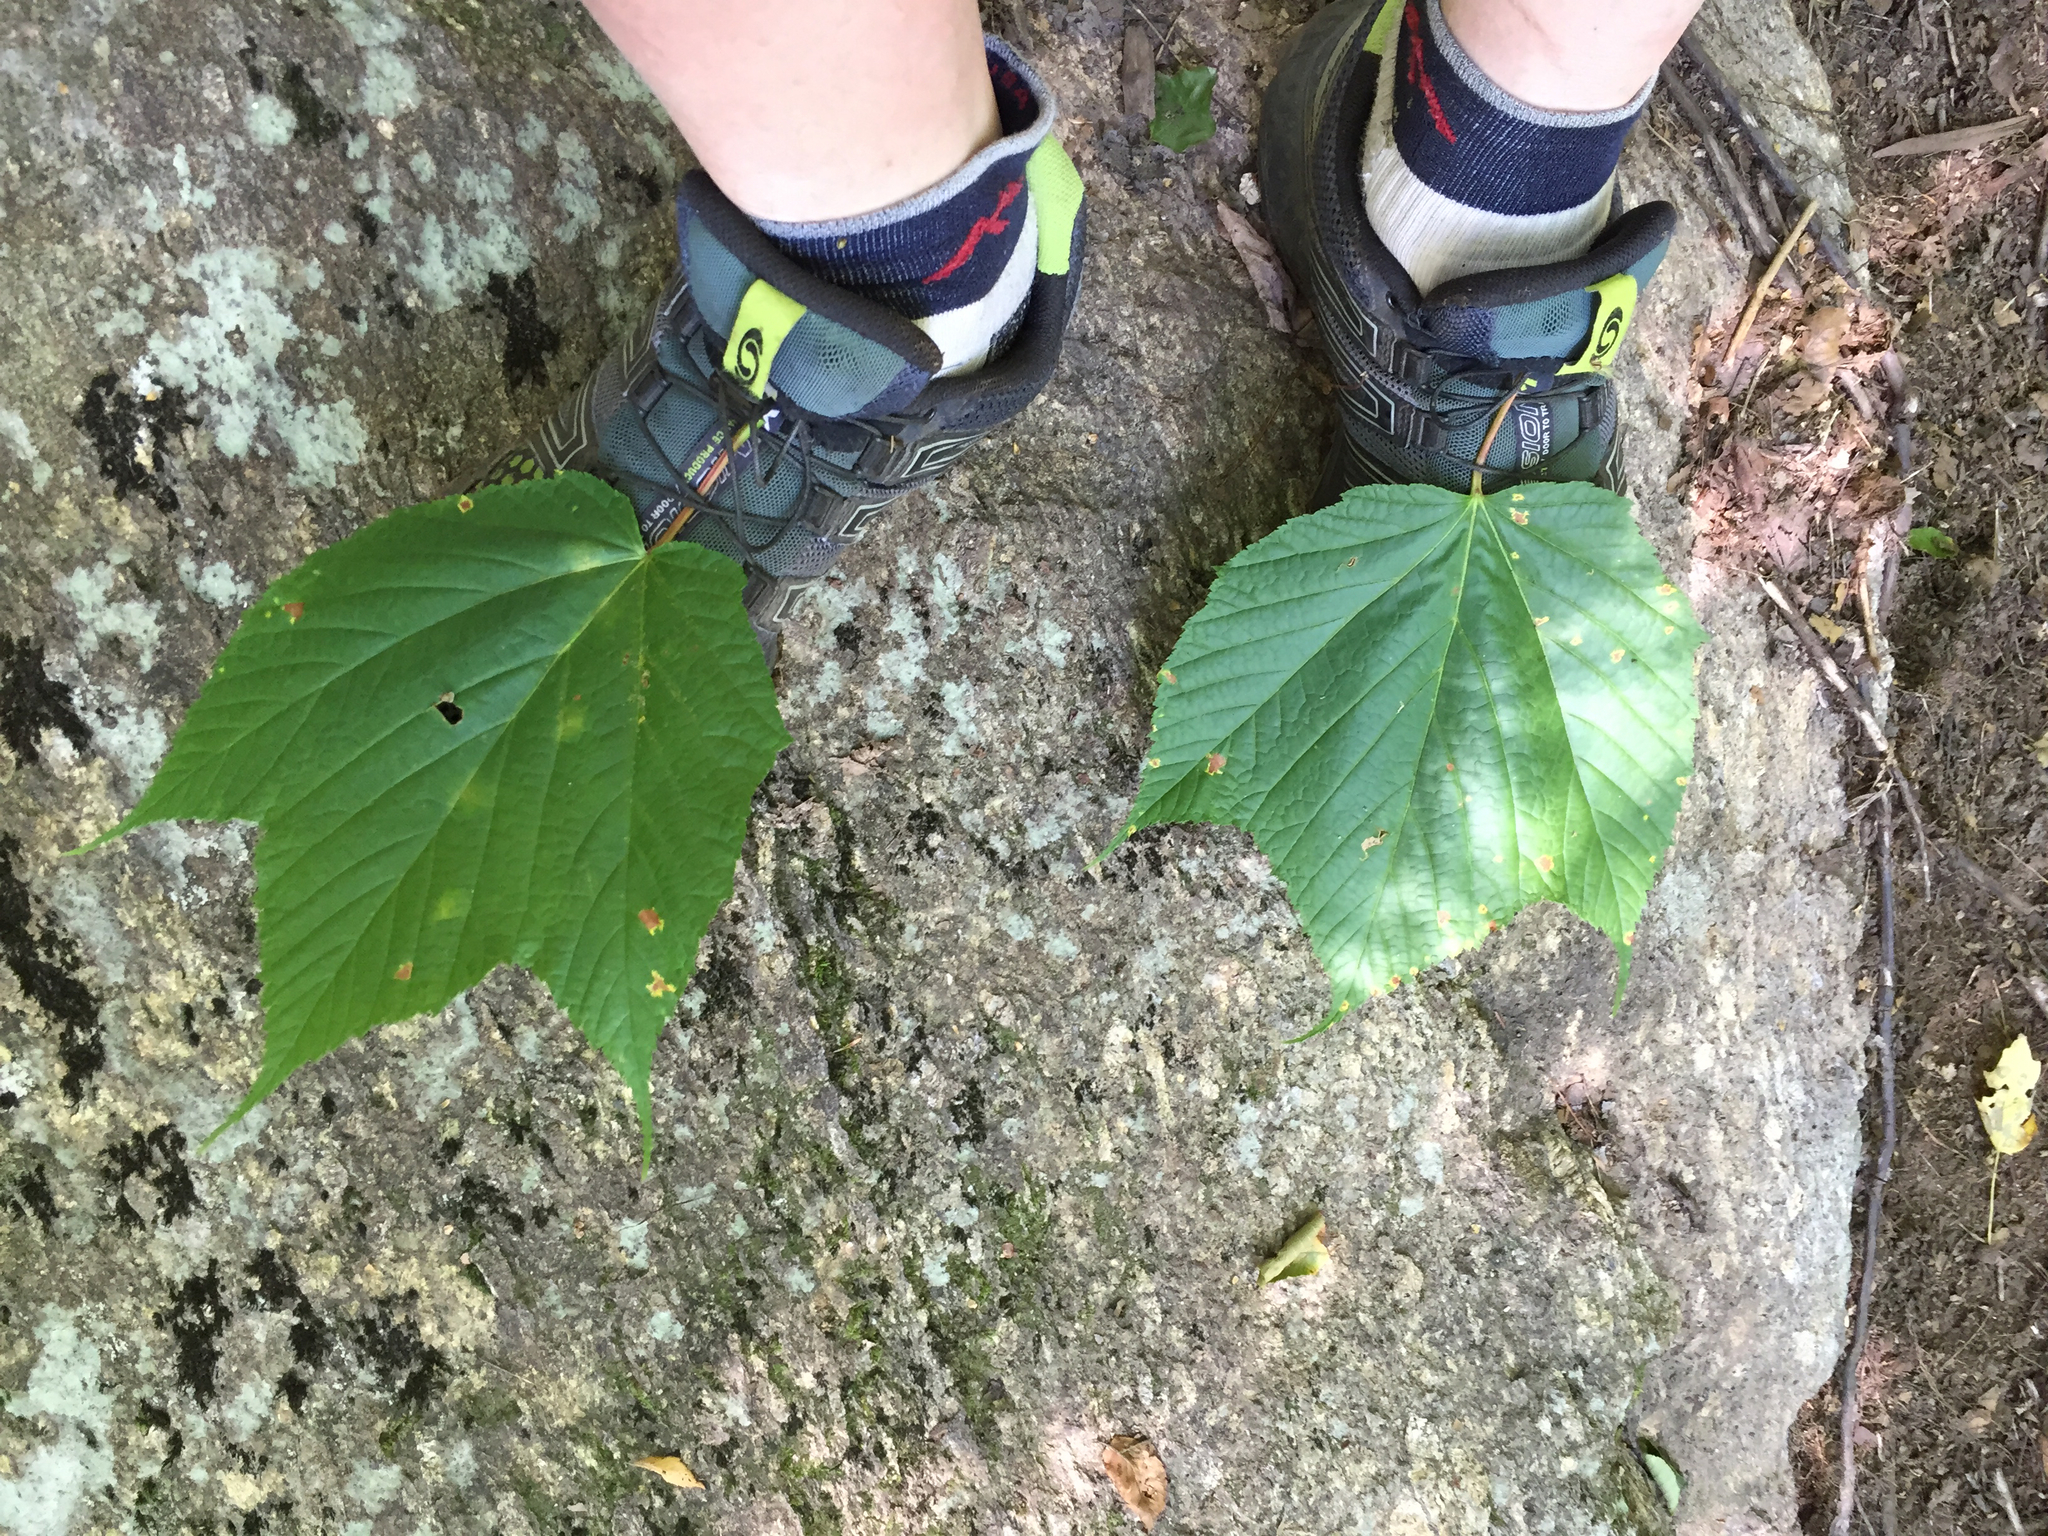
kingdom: Plantae
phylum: Tracheophyta
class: Magnoliopsida
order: Sapindales
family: Sapindaceae
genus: Acer
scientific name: Acer pensylvanicum
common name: Moosewood
